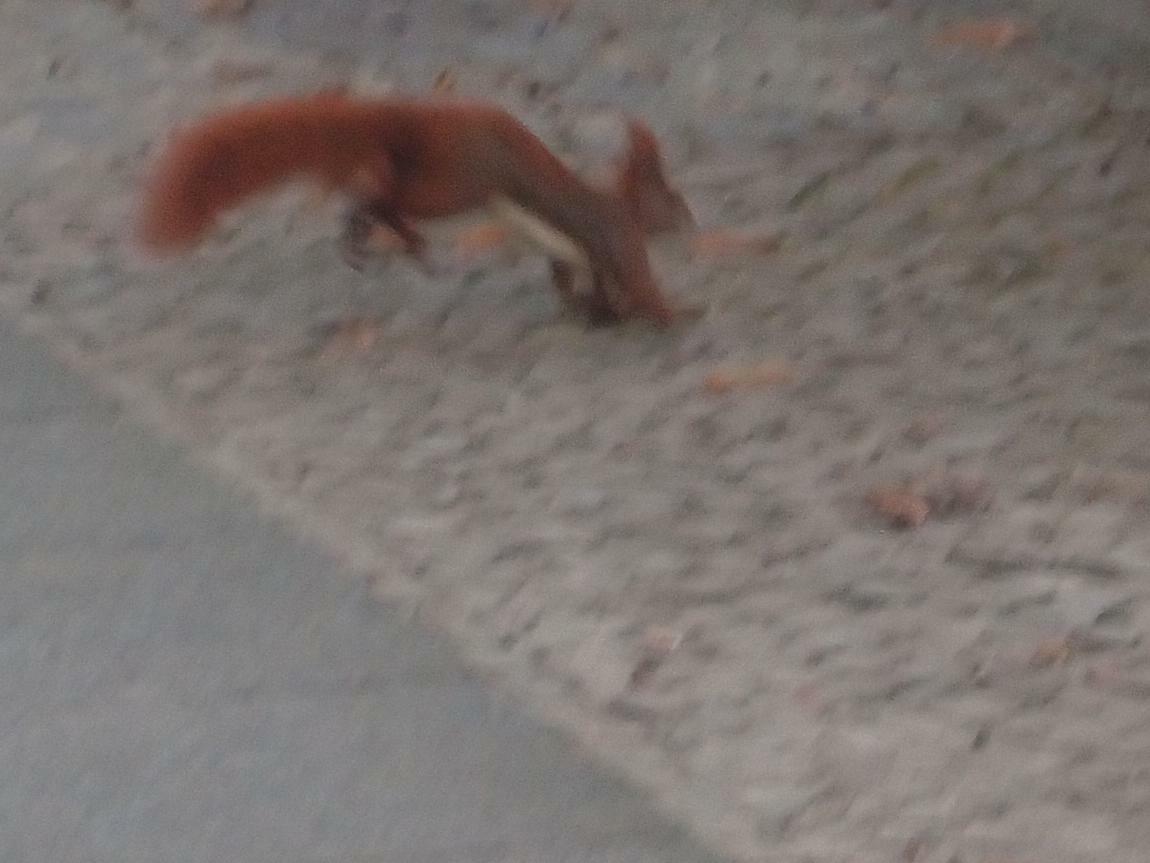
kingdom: Animalia
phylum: Chordata
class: Mammalia
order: Rodentia
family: Sciuridae
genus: Sciurus
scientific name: Sciurus vulgaris
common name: Eurasian red squirrel
